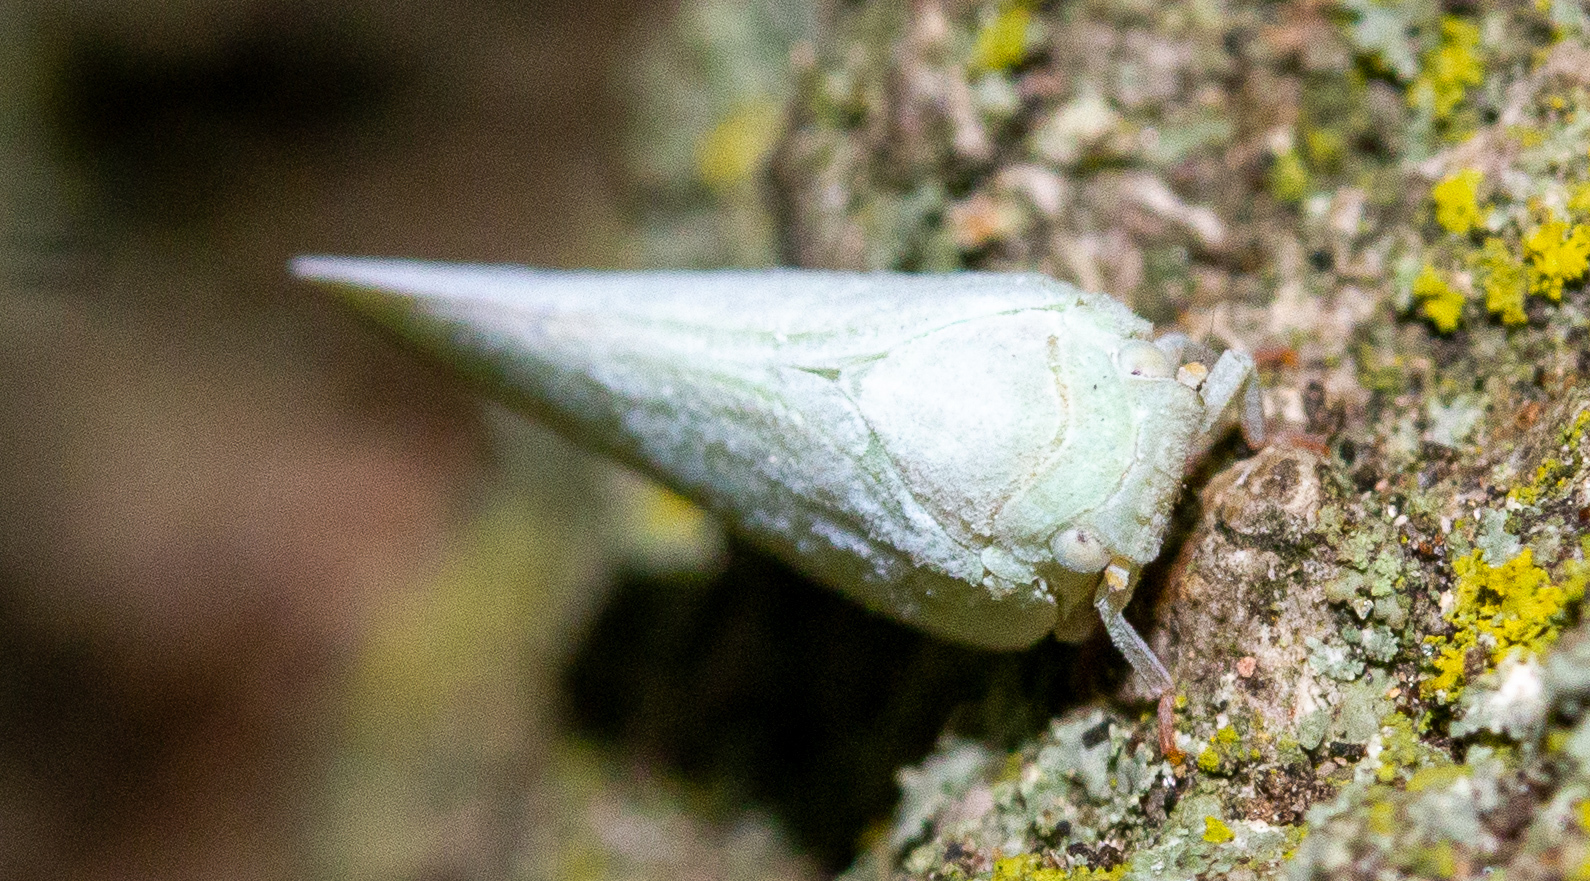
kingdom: Animalia
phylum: Arthropoda
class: Insecta
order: Hemiptera
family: Flatidae
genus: Flatormenis
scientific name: Flatormenis proxima
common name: Northern flatid planthopper
